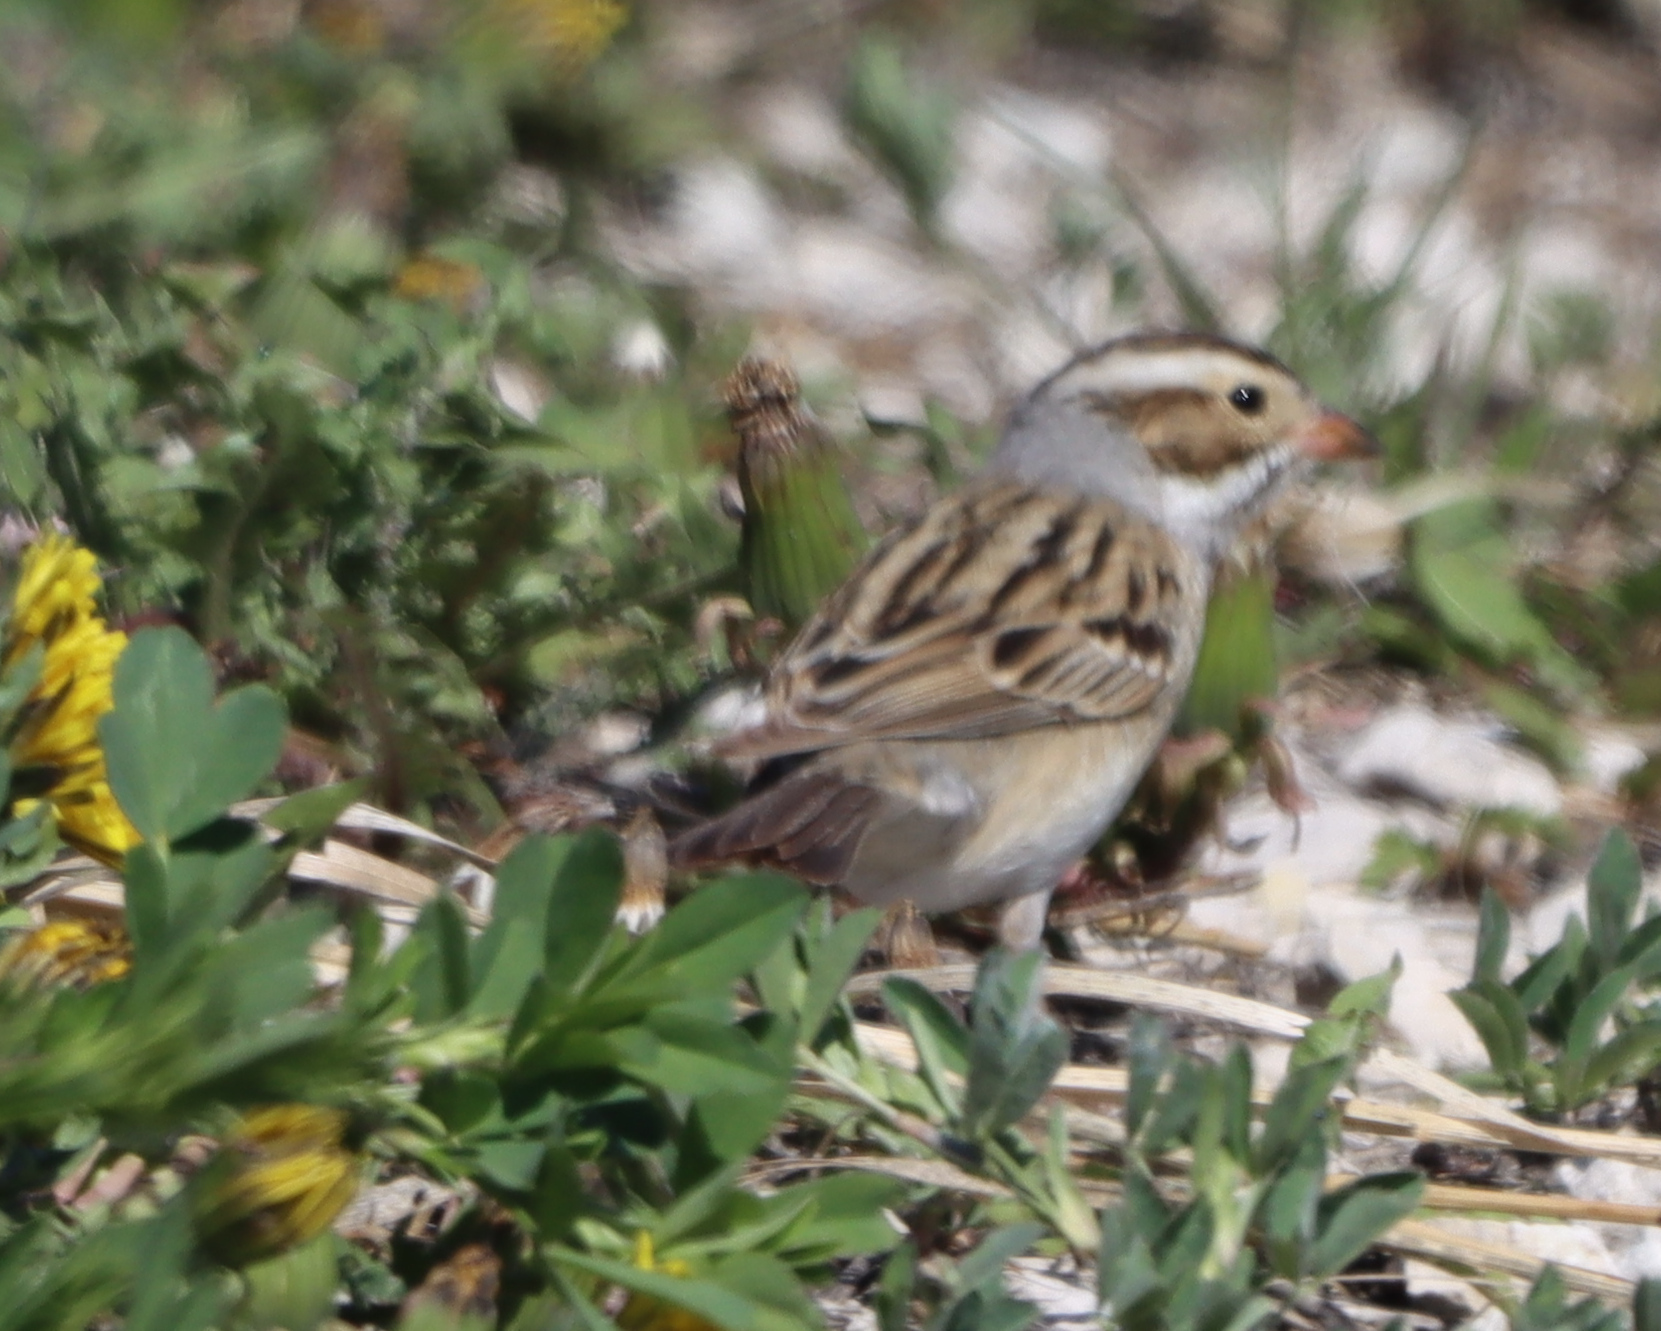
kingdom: Animalia
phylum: Chordata
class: Aves
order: Passeriformes
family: Passerellidae
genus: Spizella
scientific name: Spizella pallida
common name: Clay-colored sparrow
